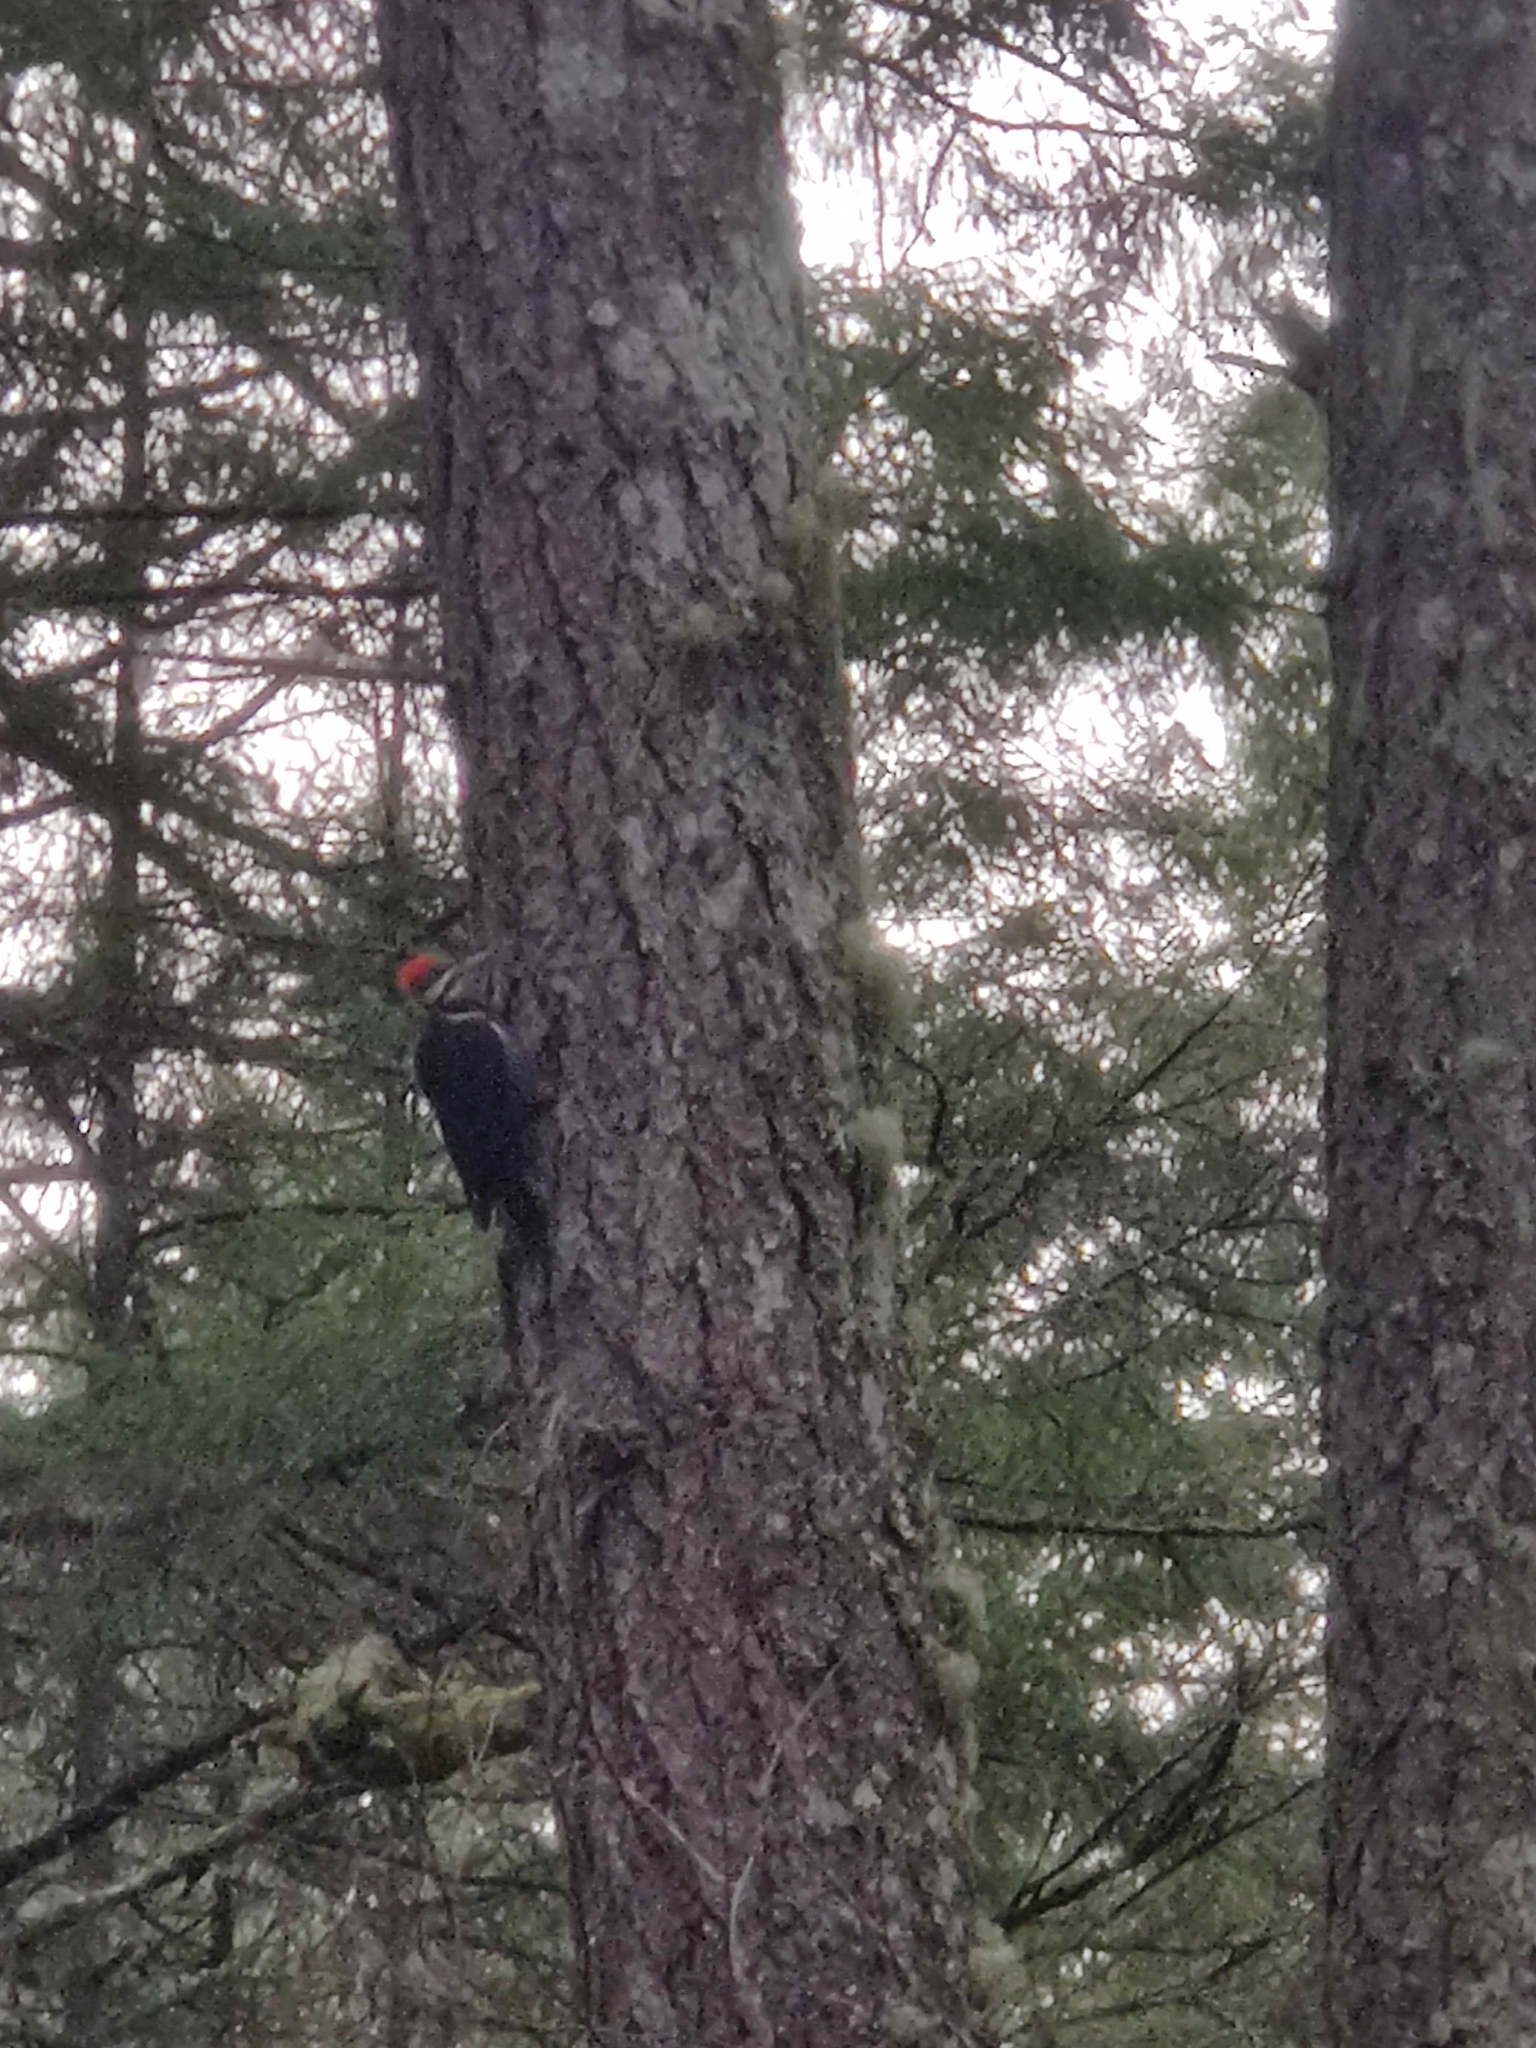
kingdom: Animalia
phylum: Chordata
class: Aves
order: Piciformes
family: Picidae
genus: Dryocopus
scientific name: Dryocopus pileatus
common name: Pileated woodpecker
